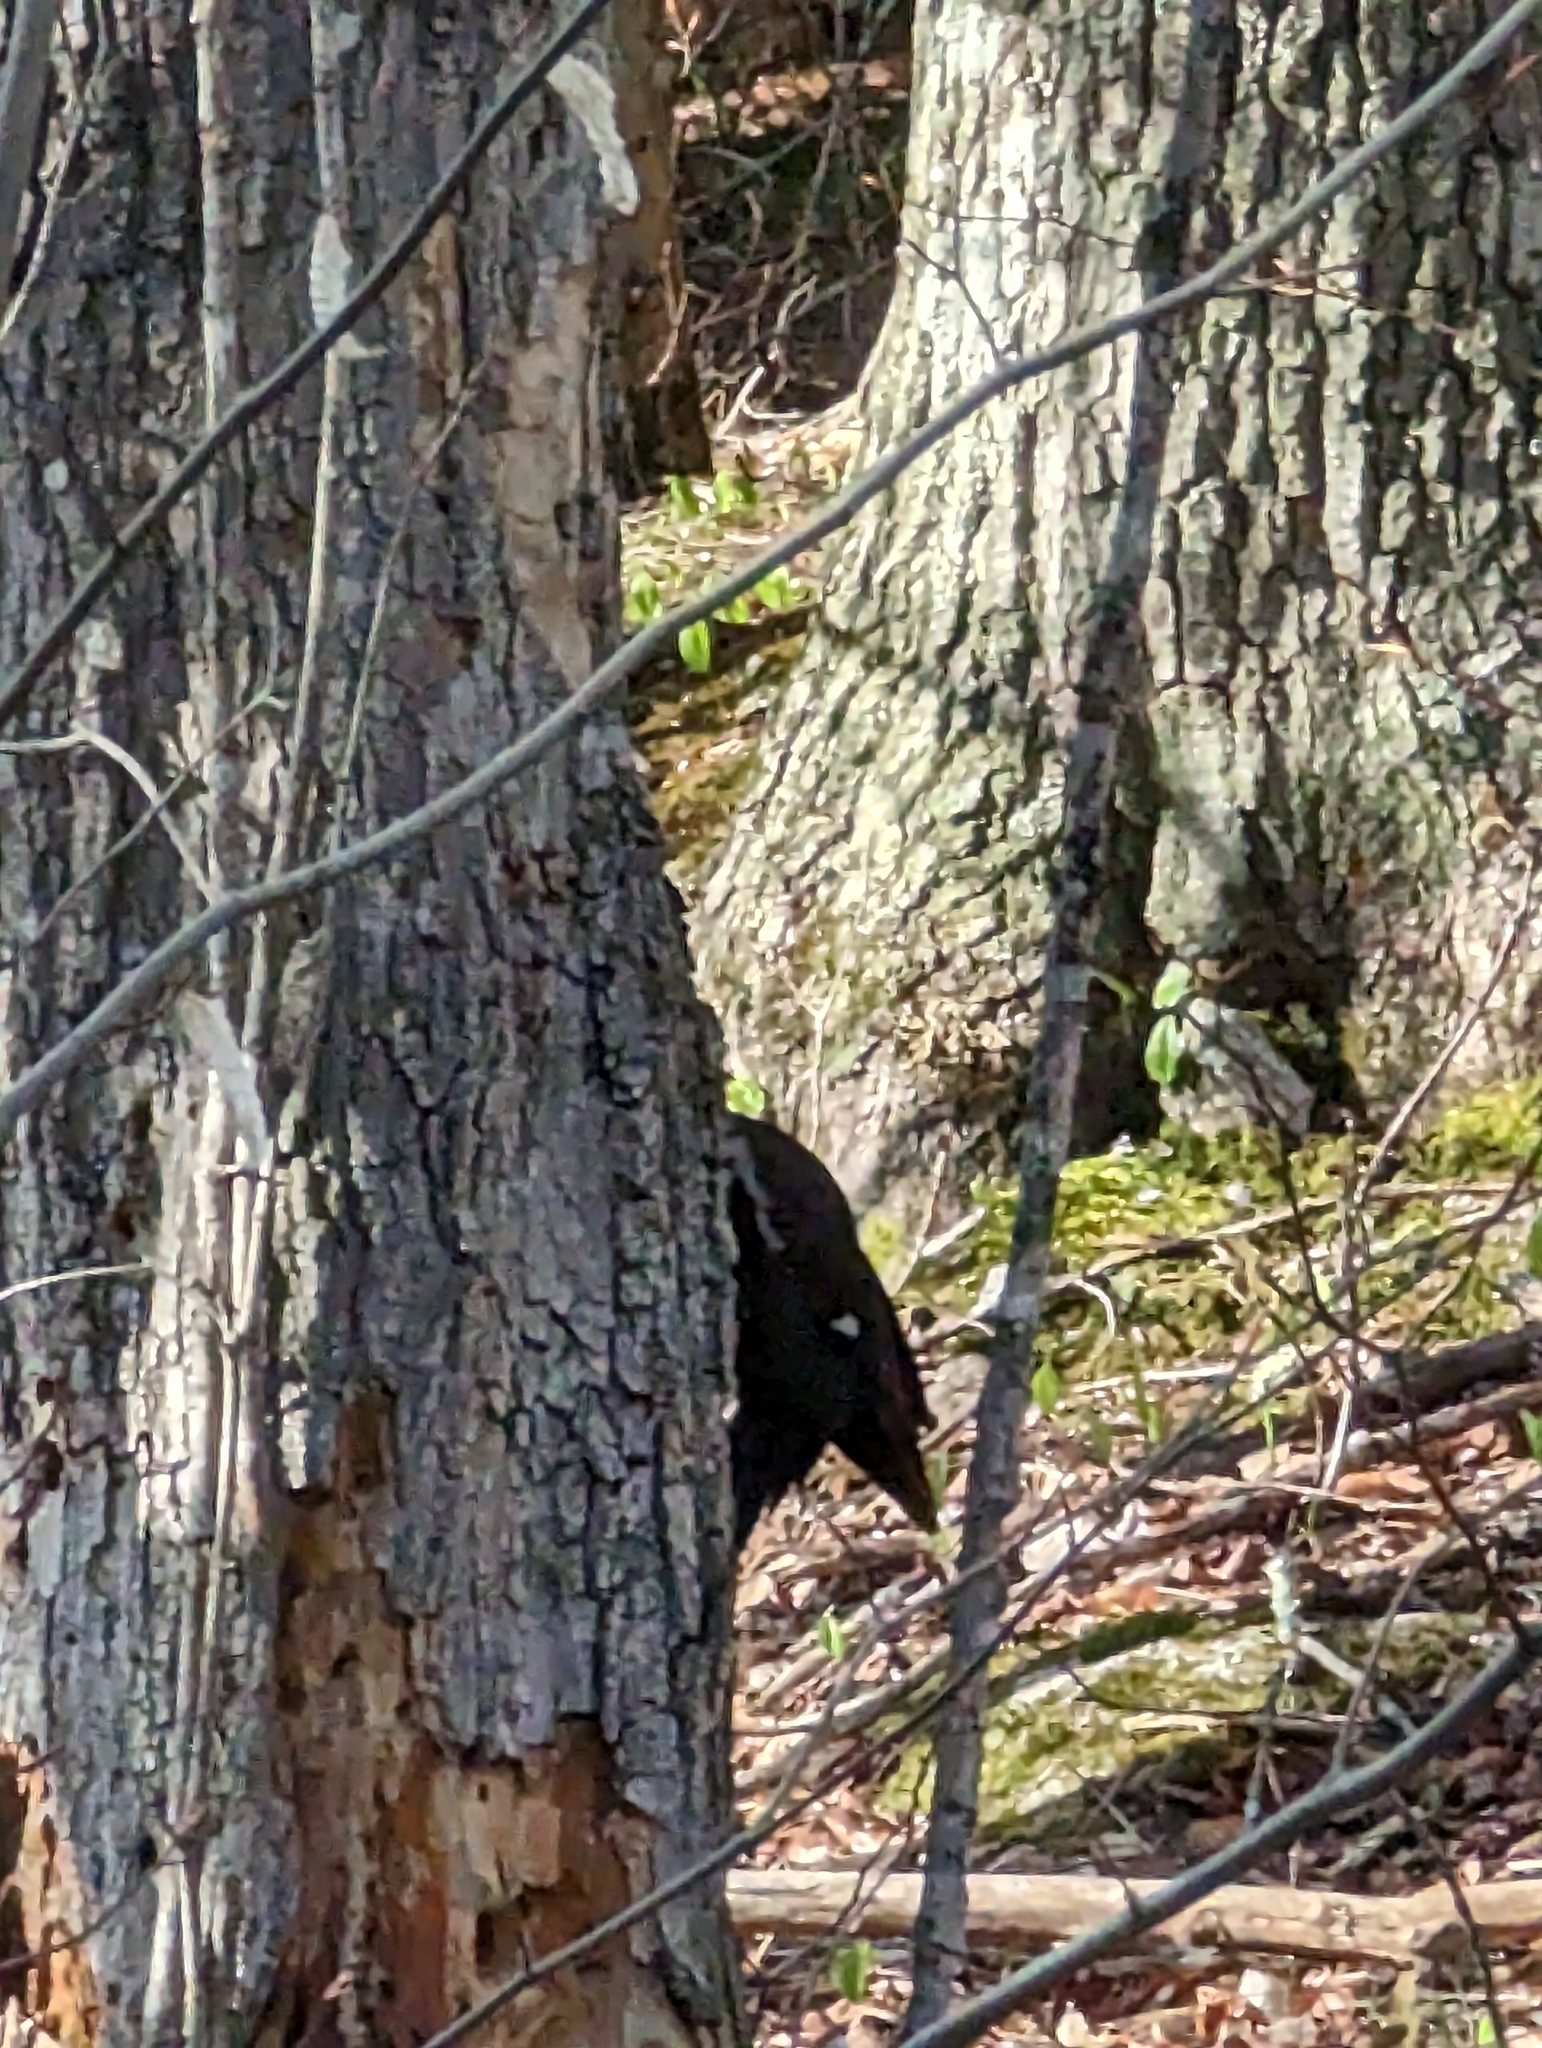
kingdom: Animalia
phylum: Chordata
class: Aves
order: Piciformes
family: Picidae
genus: Dryocopus
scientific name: Dryocopus pileatus
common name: Pileated woodpecker
